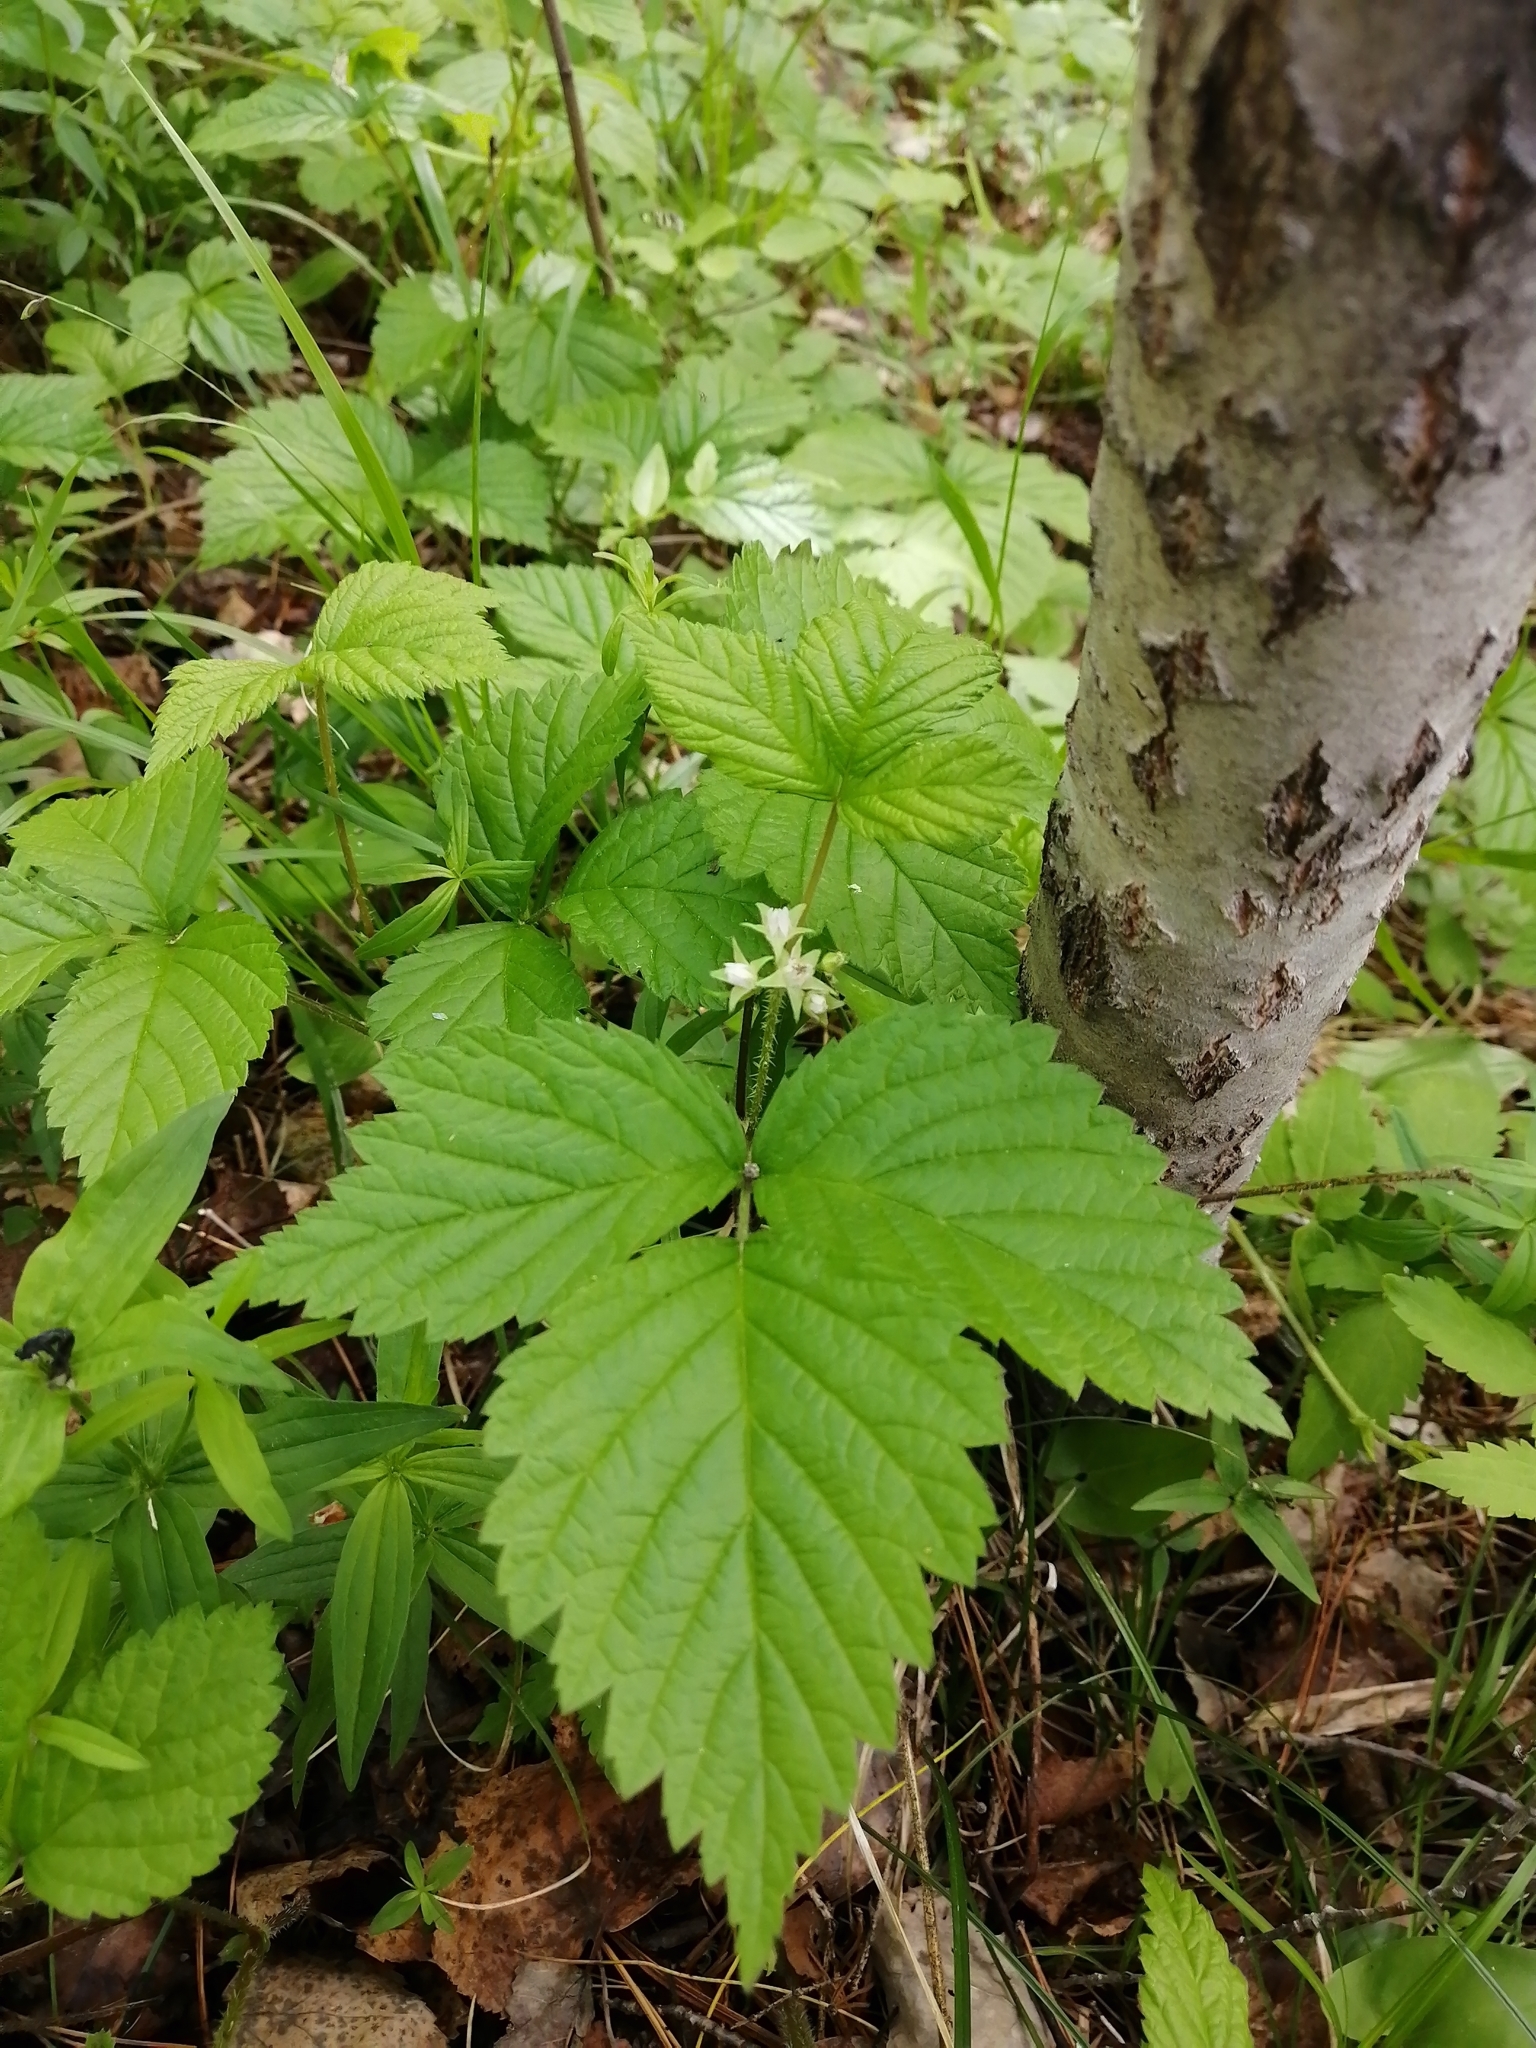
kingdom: Plantae
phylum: Tracheophyta
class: Magnoliopsida
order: Rosales
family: Rosaceae
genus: Rubus
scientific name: Rubus saxatilis
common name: Stone bramble
